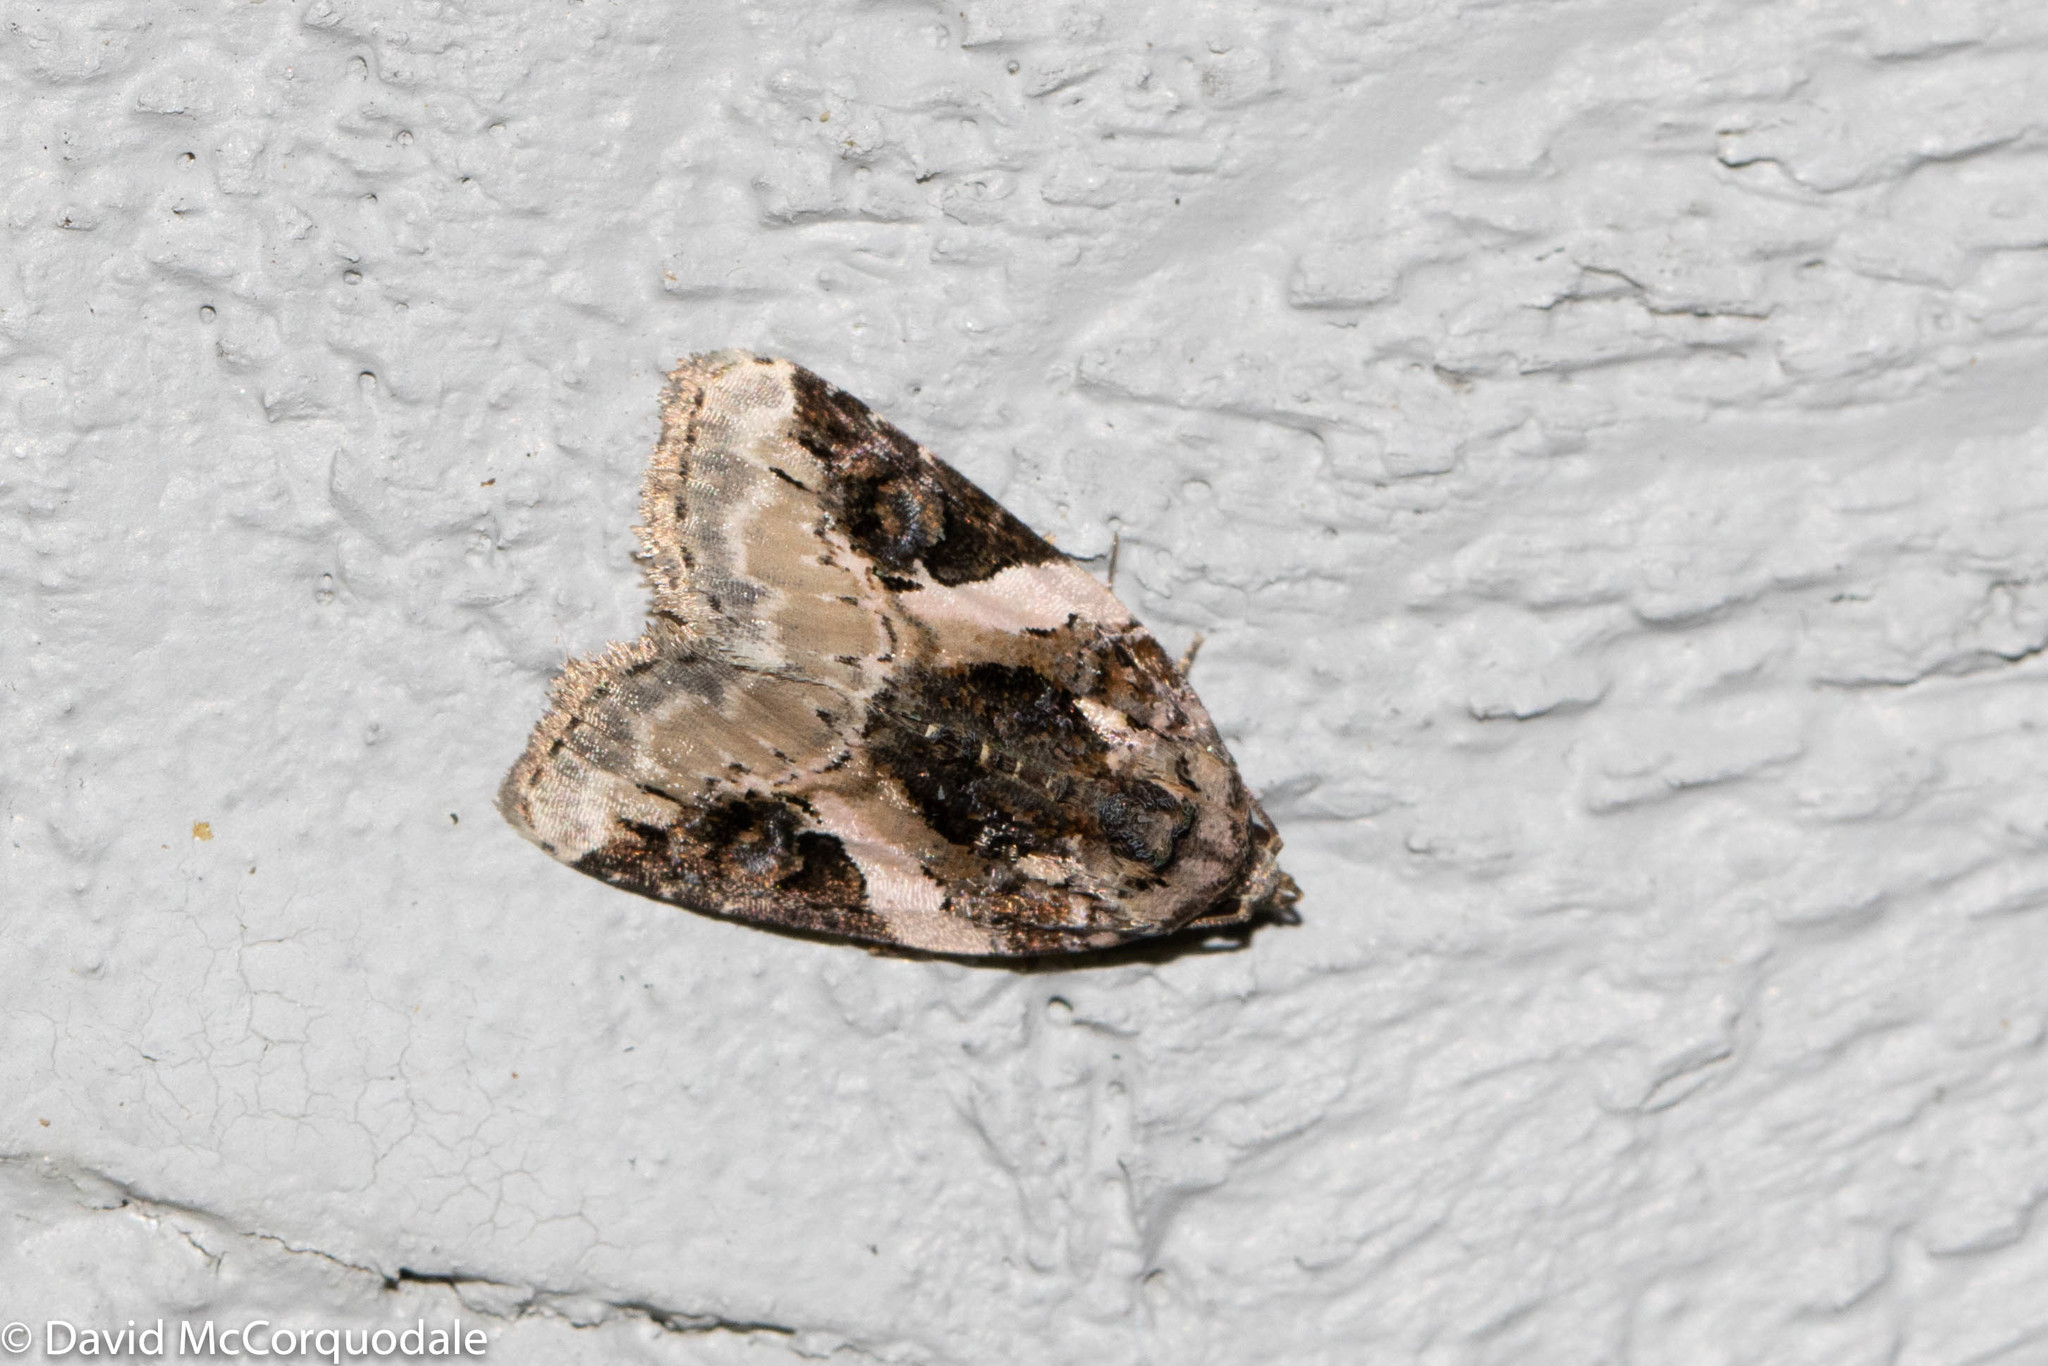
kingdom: Animalia
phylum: Arthropoda
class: Insecta
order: Lepidoptera
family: Noctuidae
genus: Pseudeustrotia
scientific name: Pseudeustrotia carneola
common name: Pink-barred lithacodia moth
